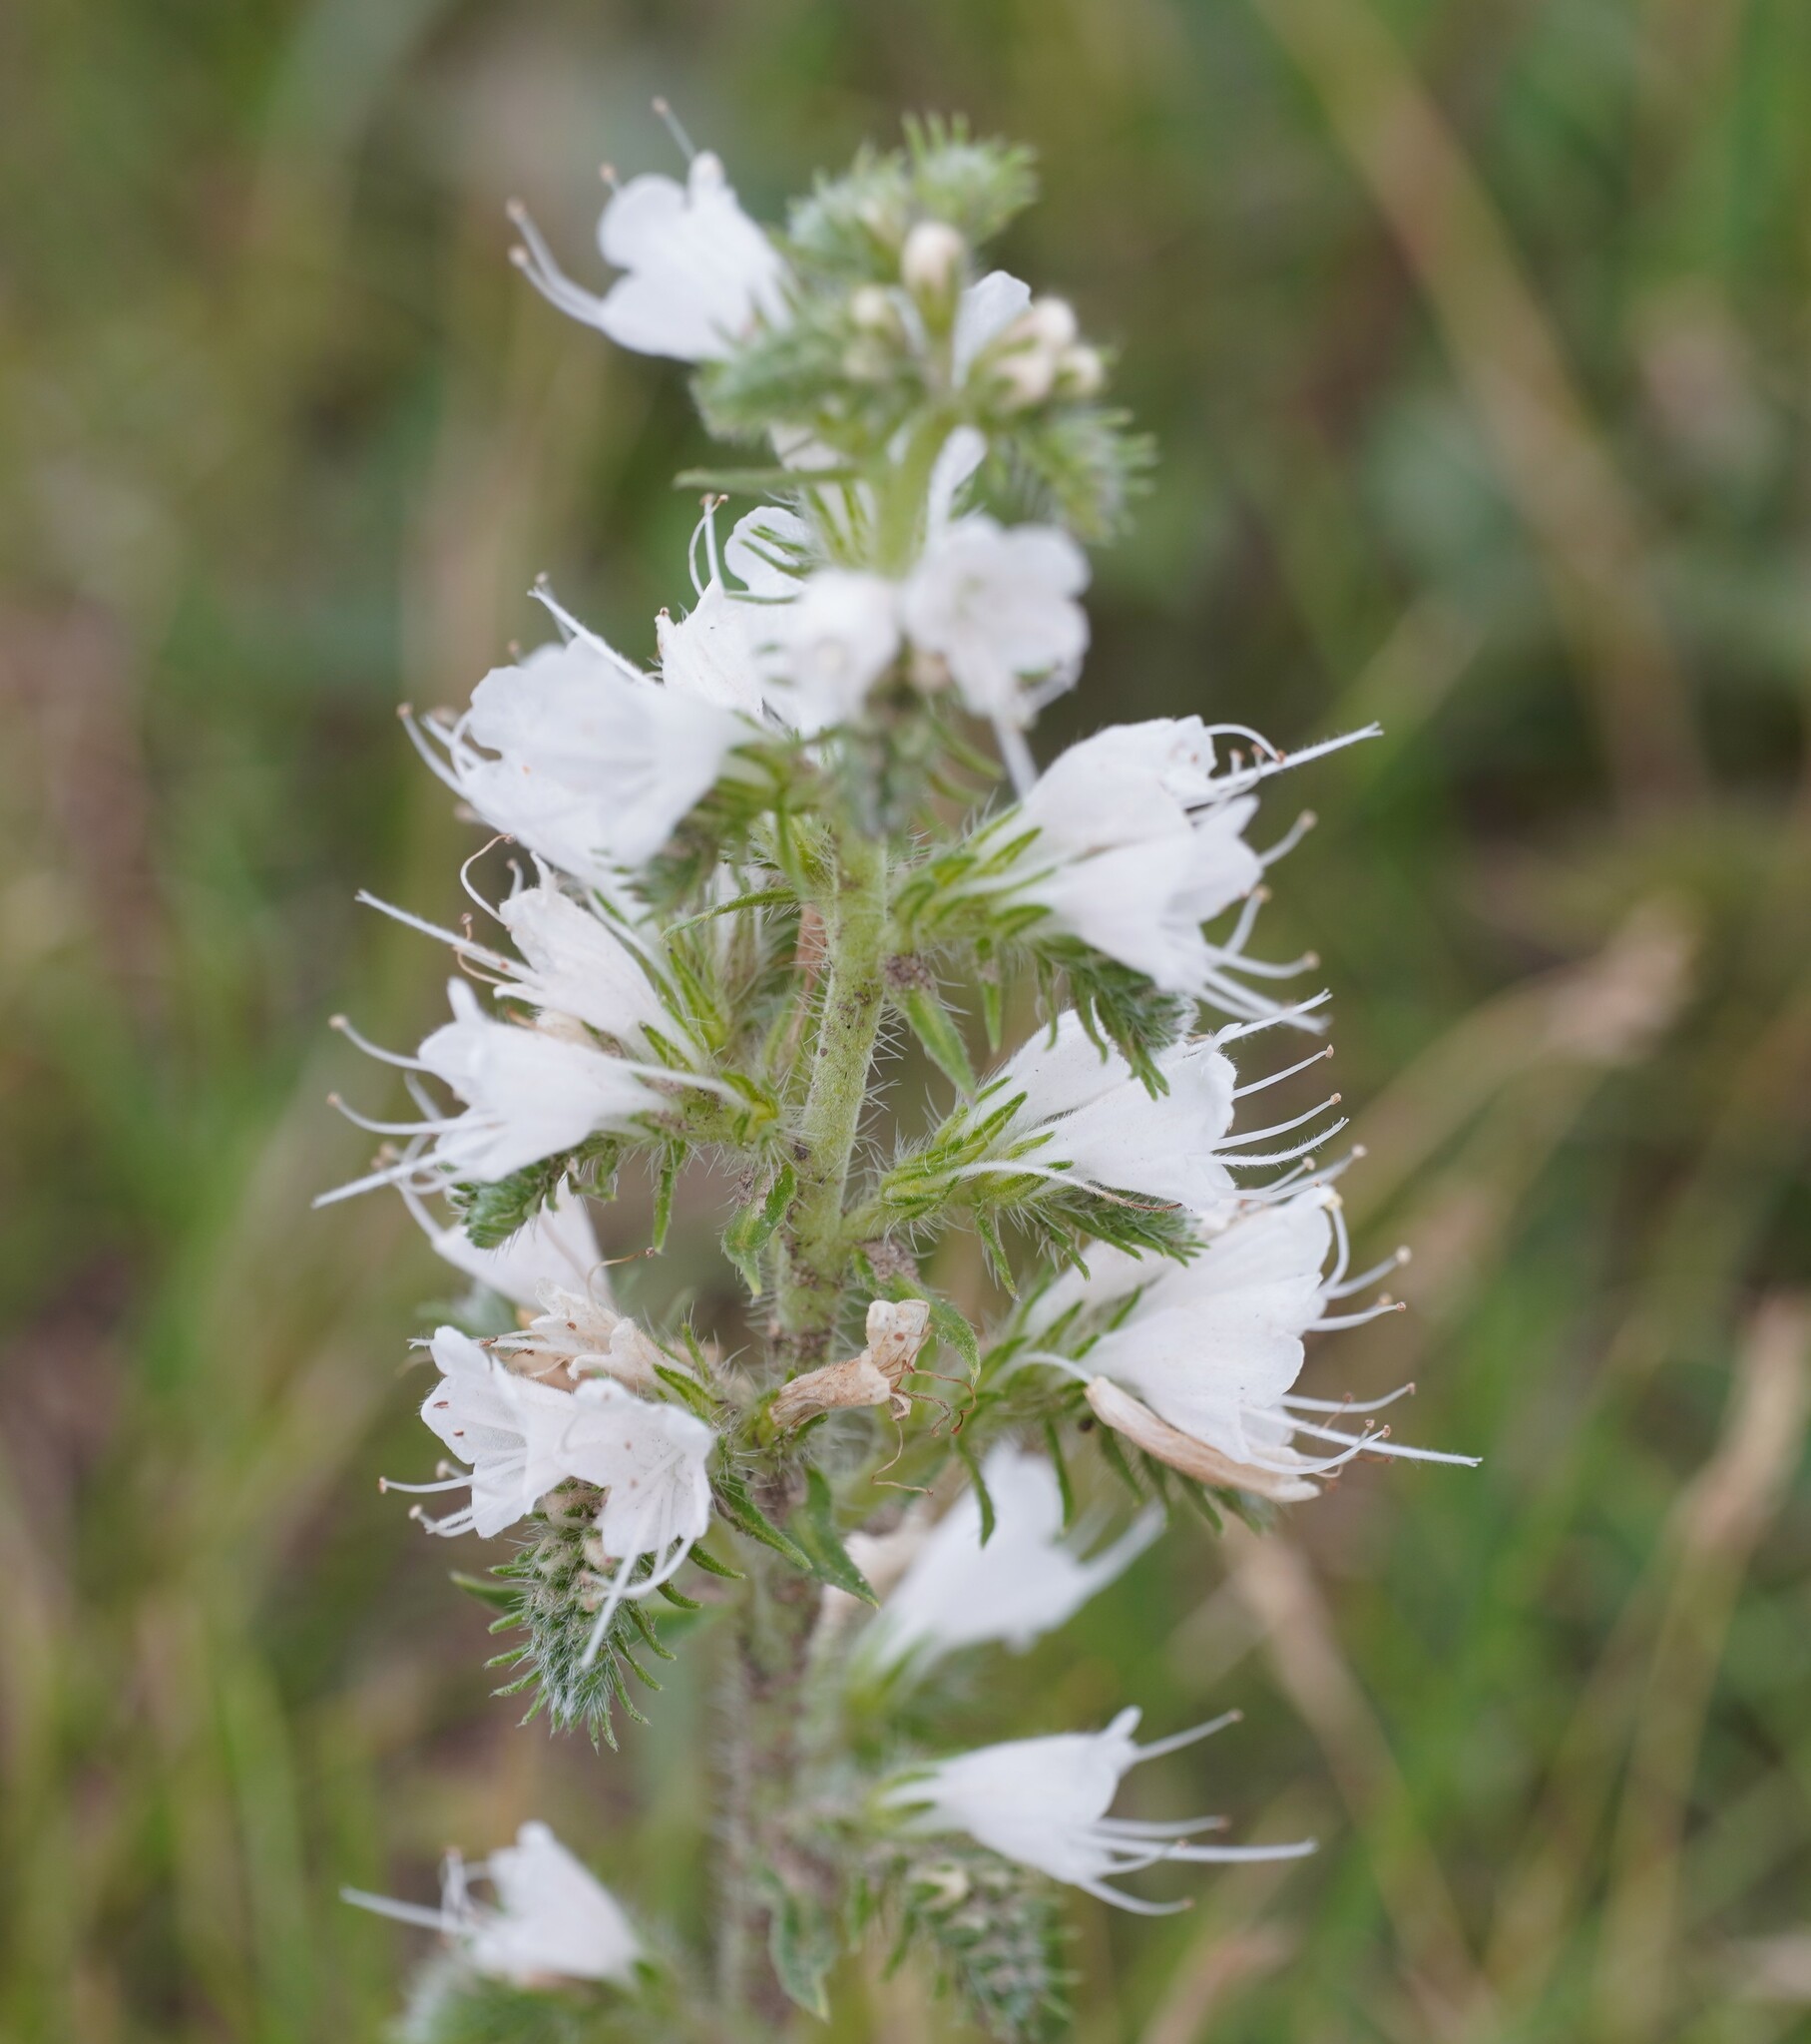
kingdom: Plantae
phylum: Tracheophyta
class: Magnoliopsida
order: Boraginales
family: Boraginaceae
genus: Echium
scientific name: Echium vulgare
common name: Common viper's bugloss
